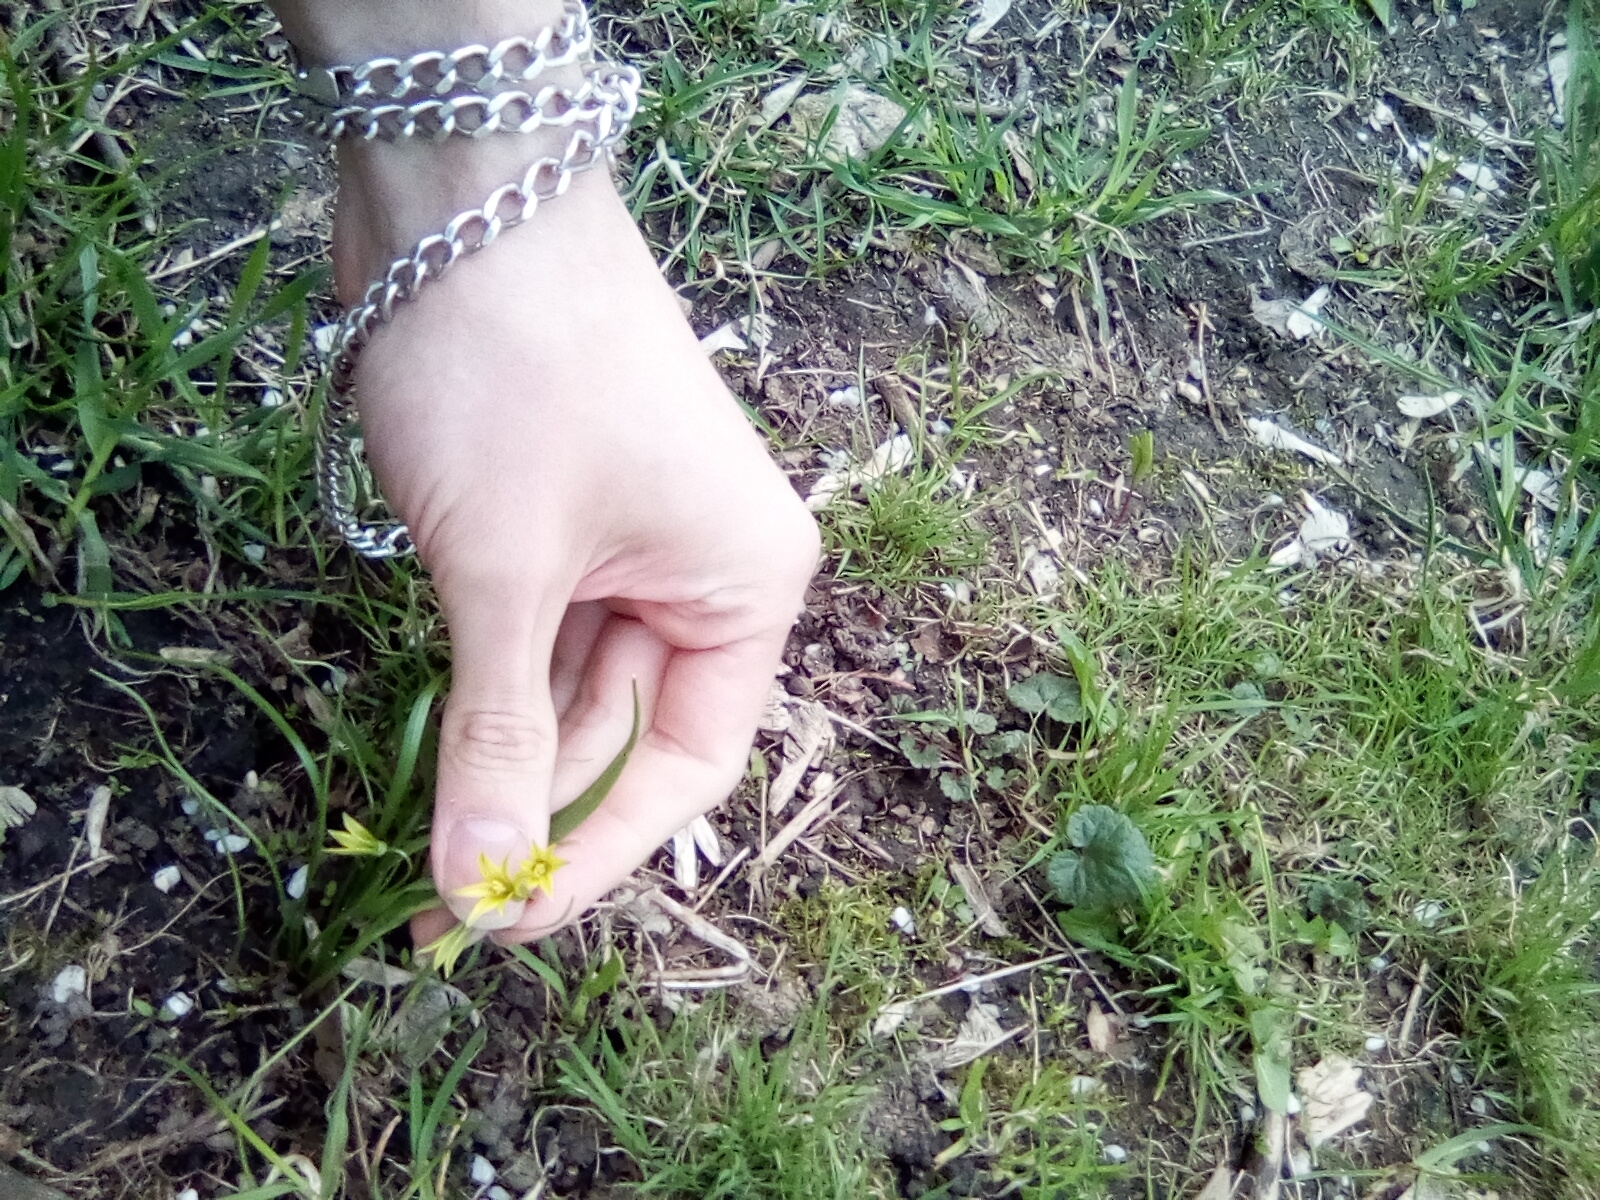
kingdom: Plantae
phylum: Tracheophyta
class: Liliopsida
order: Liliales
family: Liliaceae
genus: Gagea
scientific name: Gagea minima
